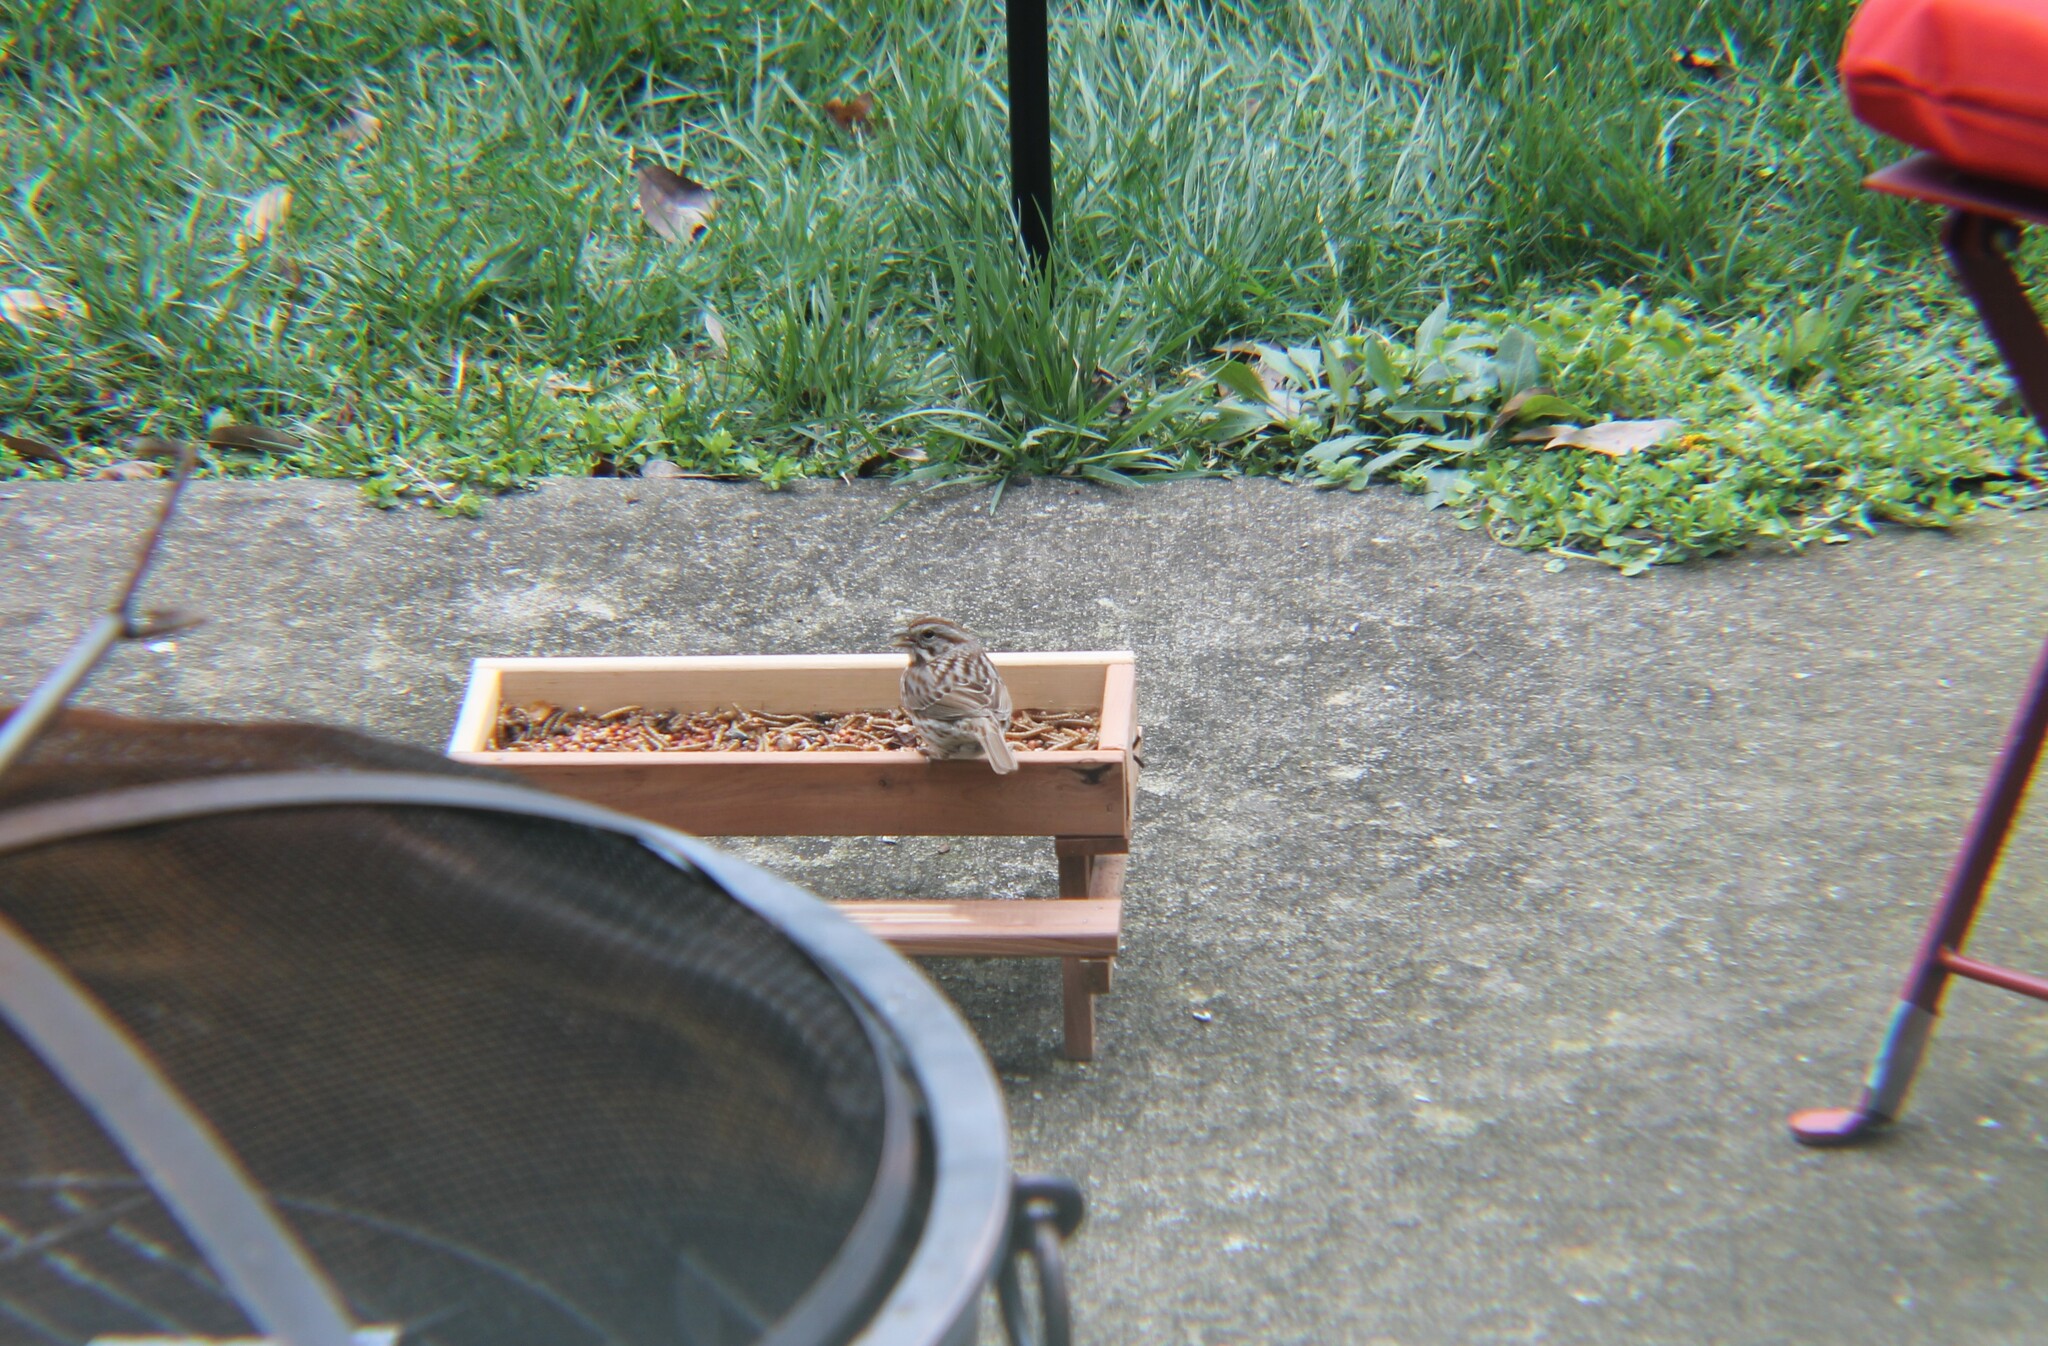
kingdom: Animalia
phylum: Chordata
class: Aves
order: Passeriformes
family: Passerellidae
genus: Melospiza
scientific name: Melospiza melodia
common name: Song sparrow
